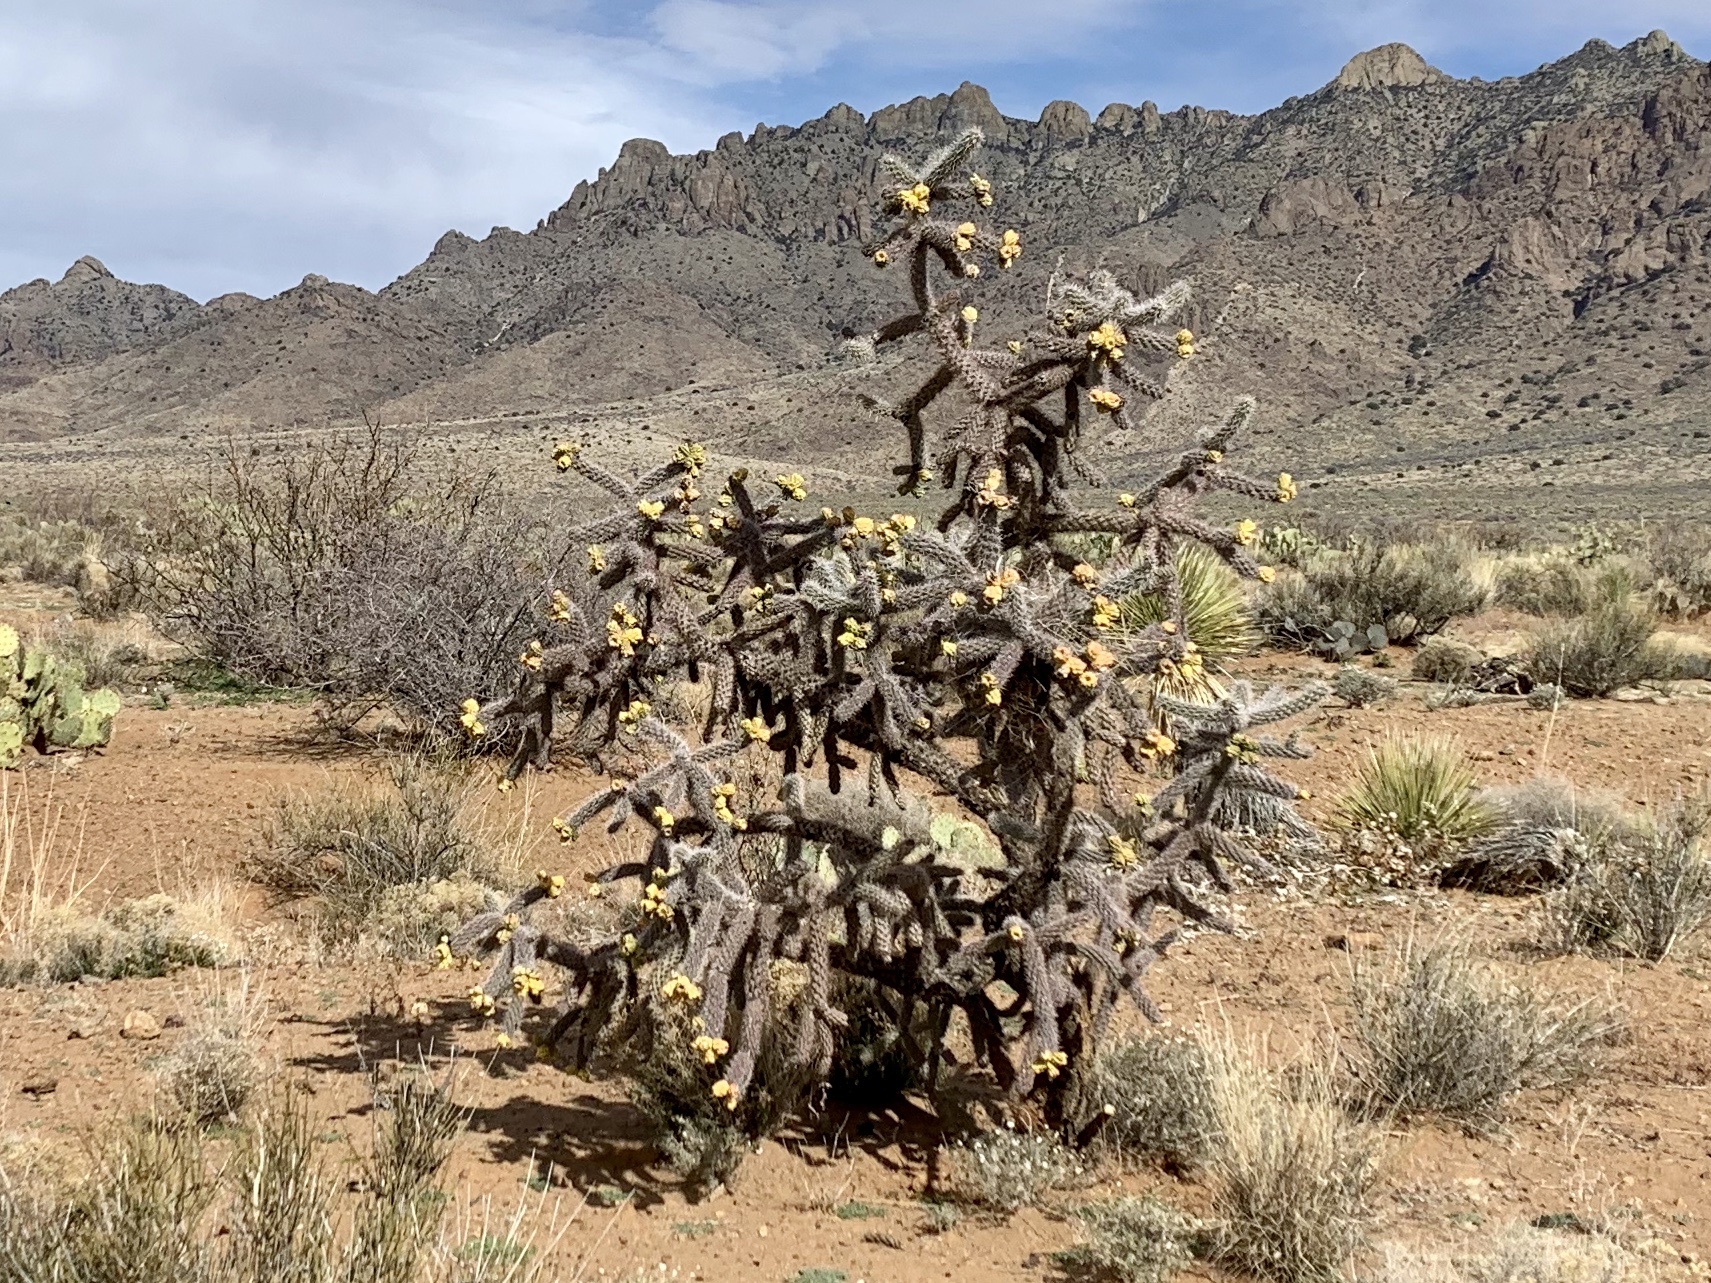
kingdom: Plantae
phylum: Tracheophyta
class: Magnoliopsida
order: Caryophyllales
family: Cactaceae
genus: Cylindropuntia
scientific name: Cylindropuntia imbricata
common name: Candelabrum cactus
